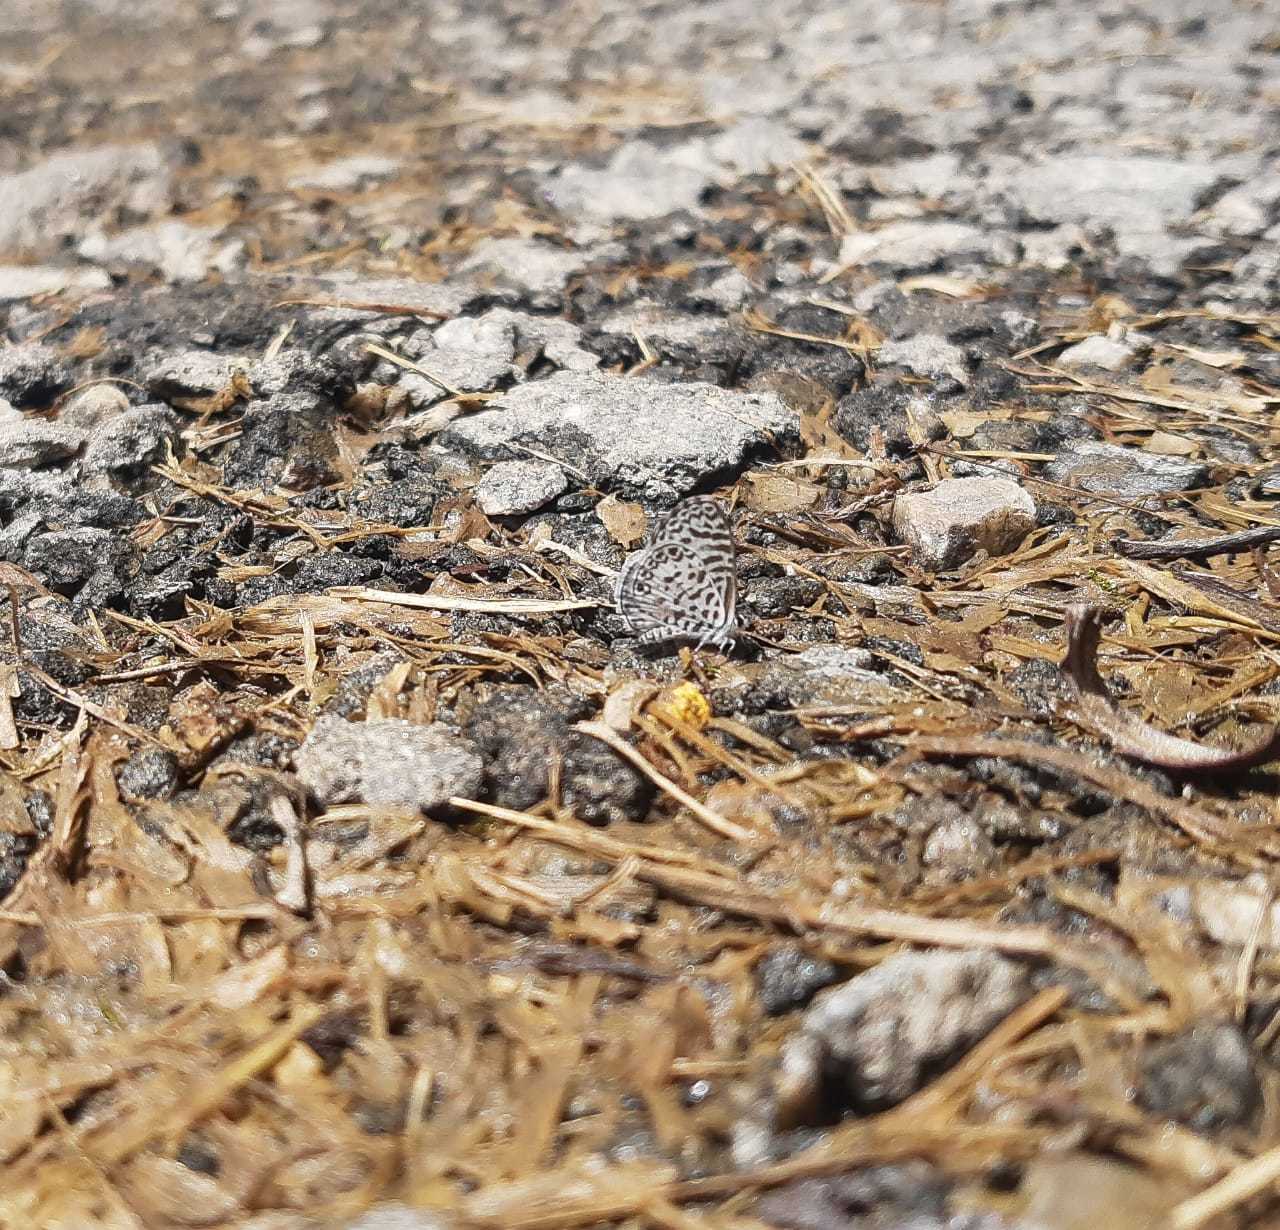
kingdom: Animalia
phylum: Arthropoda
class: Insecta
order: Lepidoptera
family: Lycaenidae
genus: Leptotes
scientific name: Leptotes cassius
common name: Cassius blue
